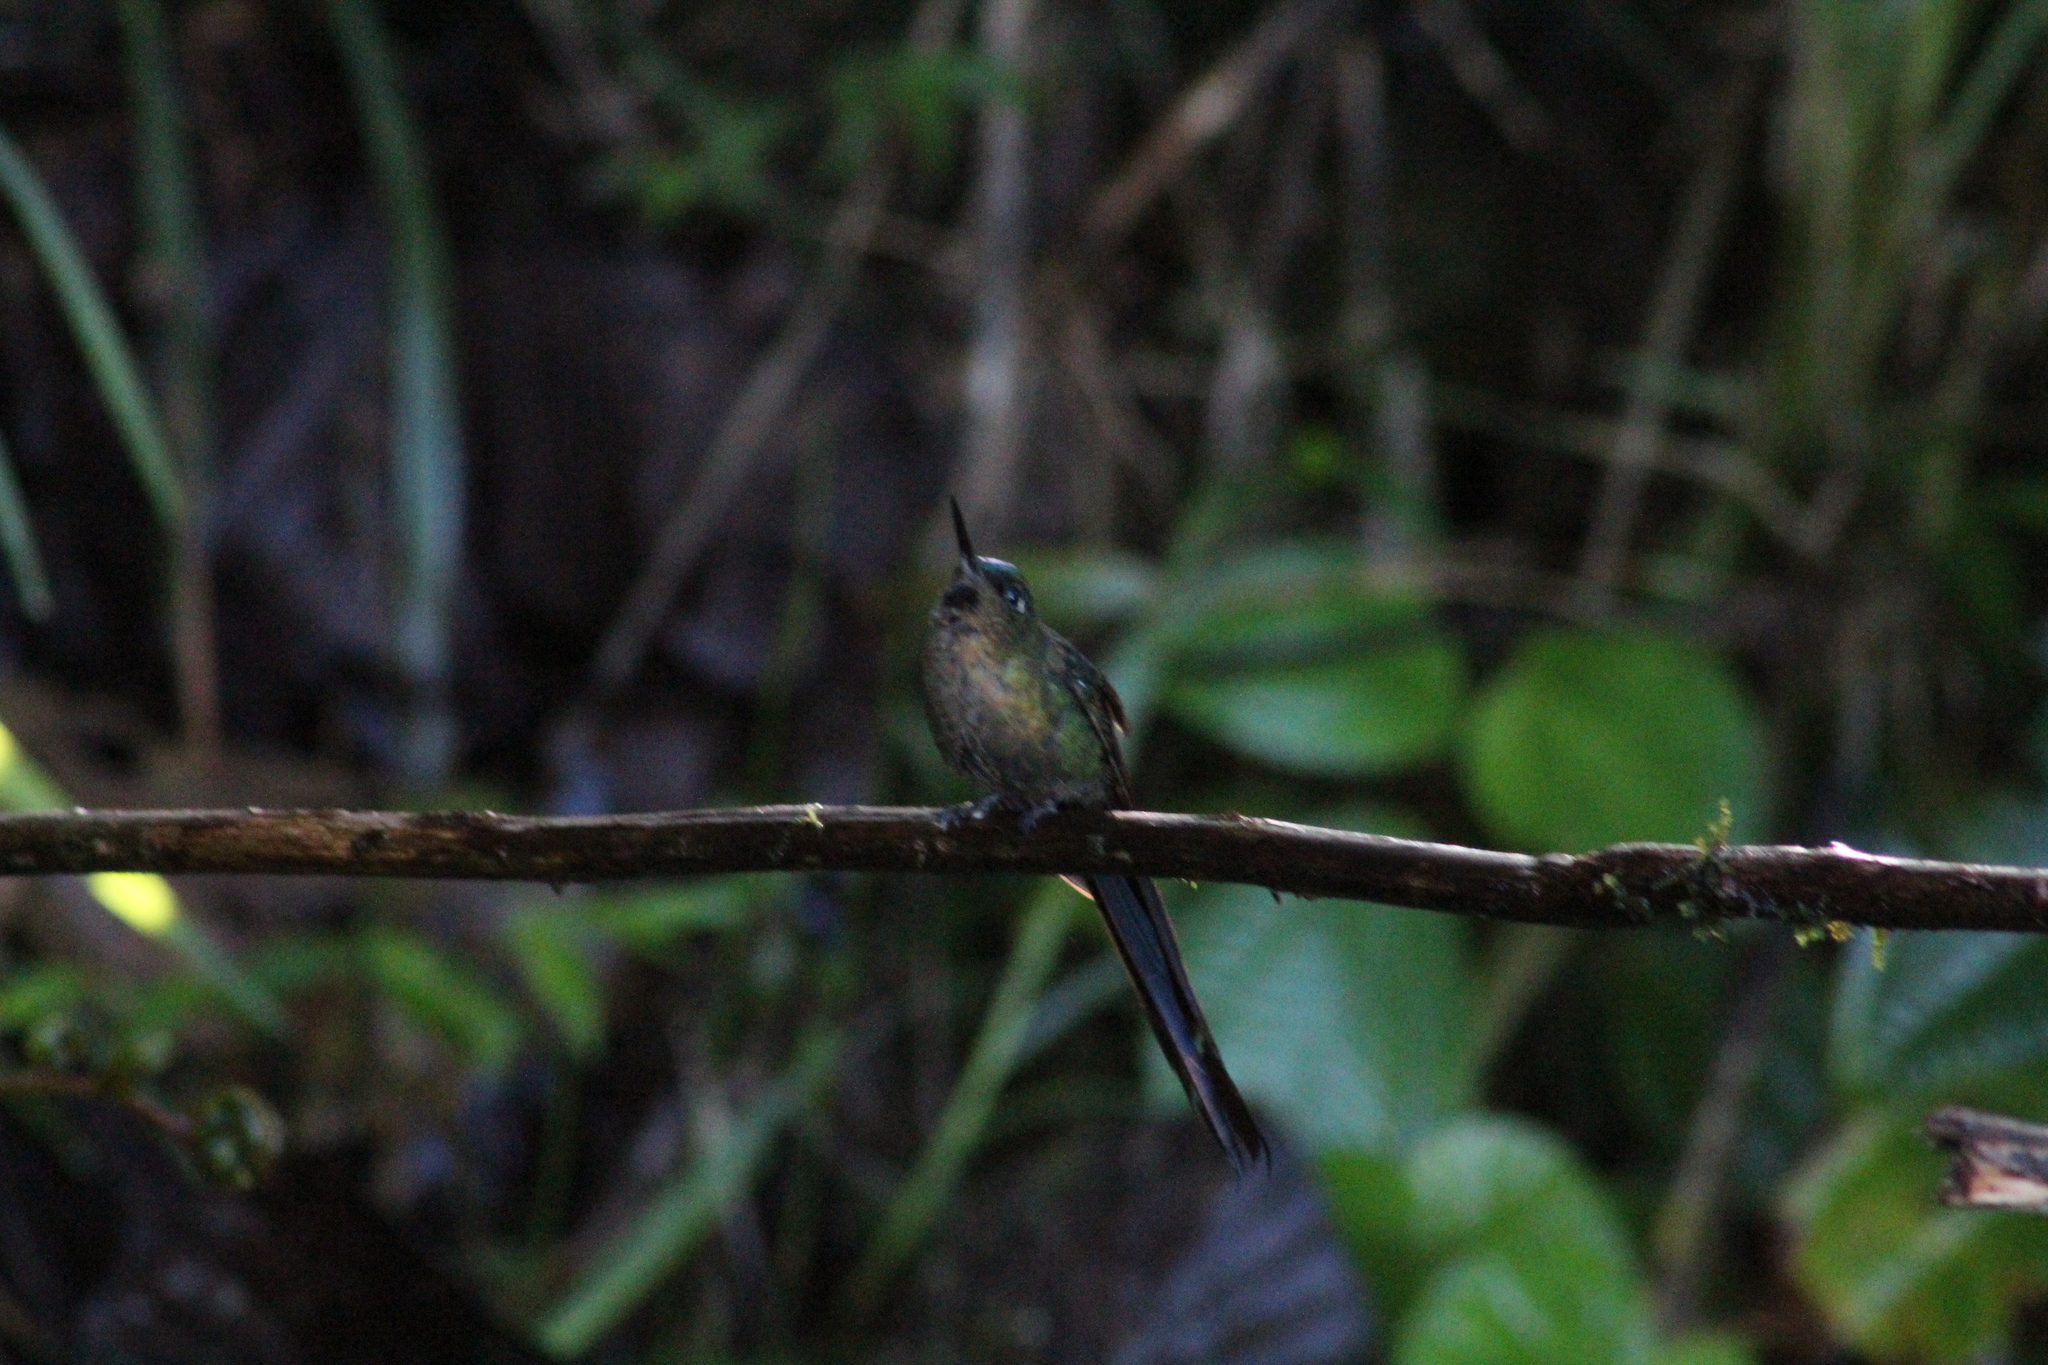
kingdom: Animalia
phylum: Chordata
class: Aves
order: Apodiformes
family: Trochilidae
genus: Aglaiocercus
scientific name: Aglaiocercus coelestis
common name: Violet-tailed sylph
